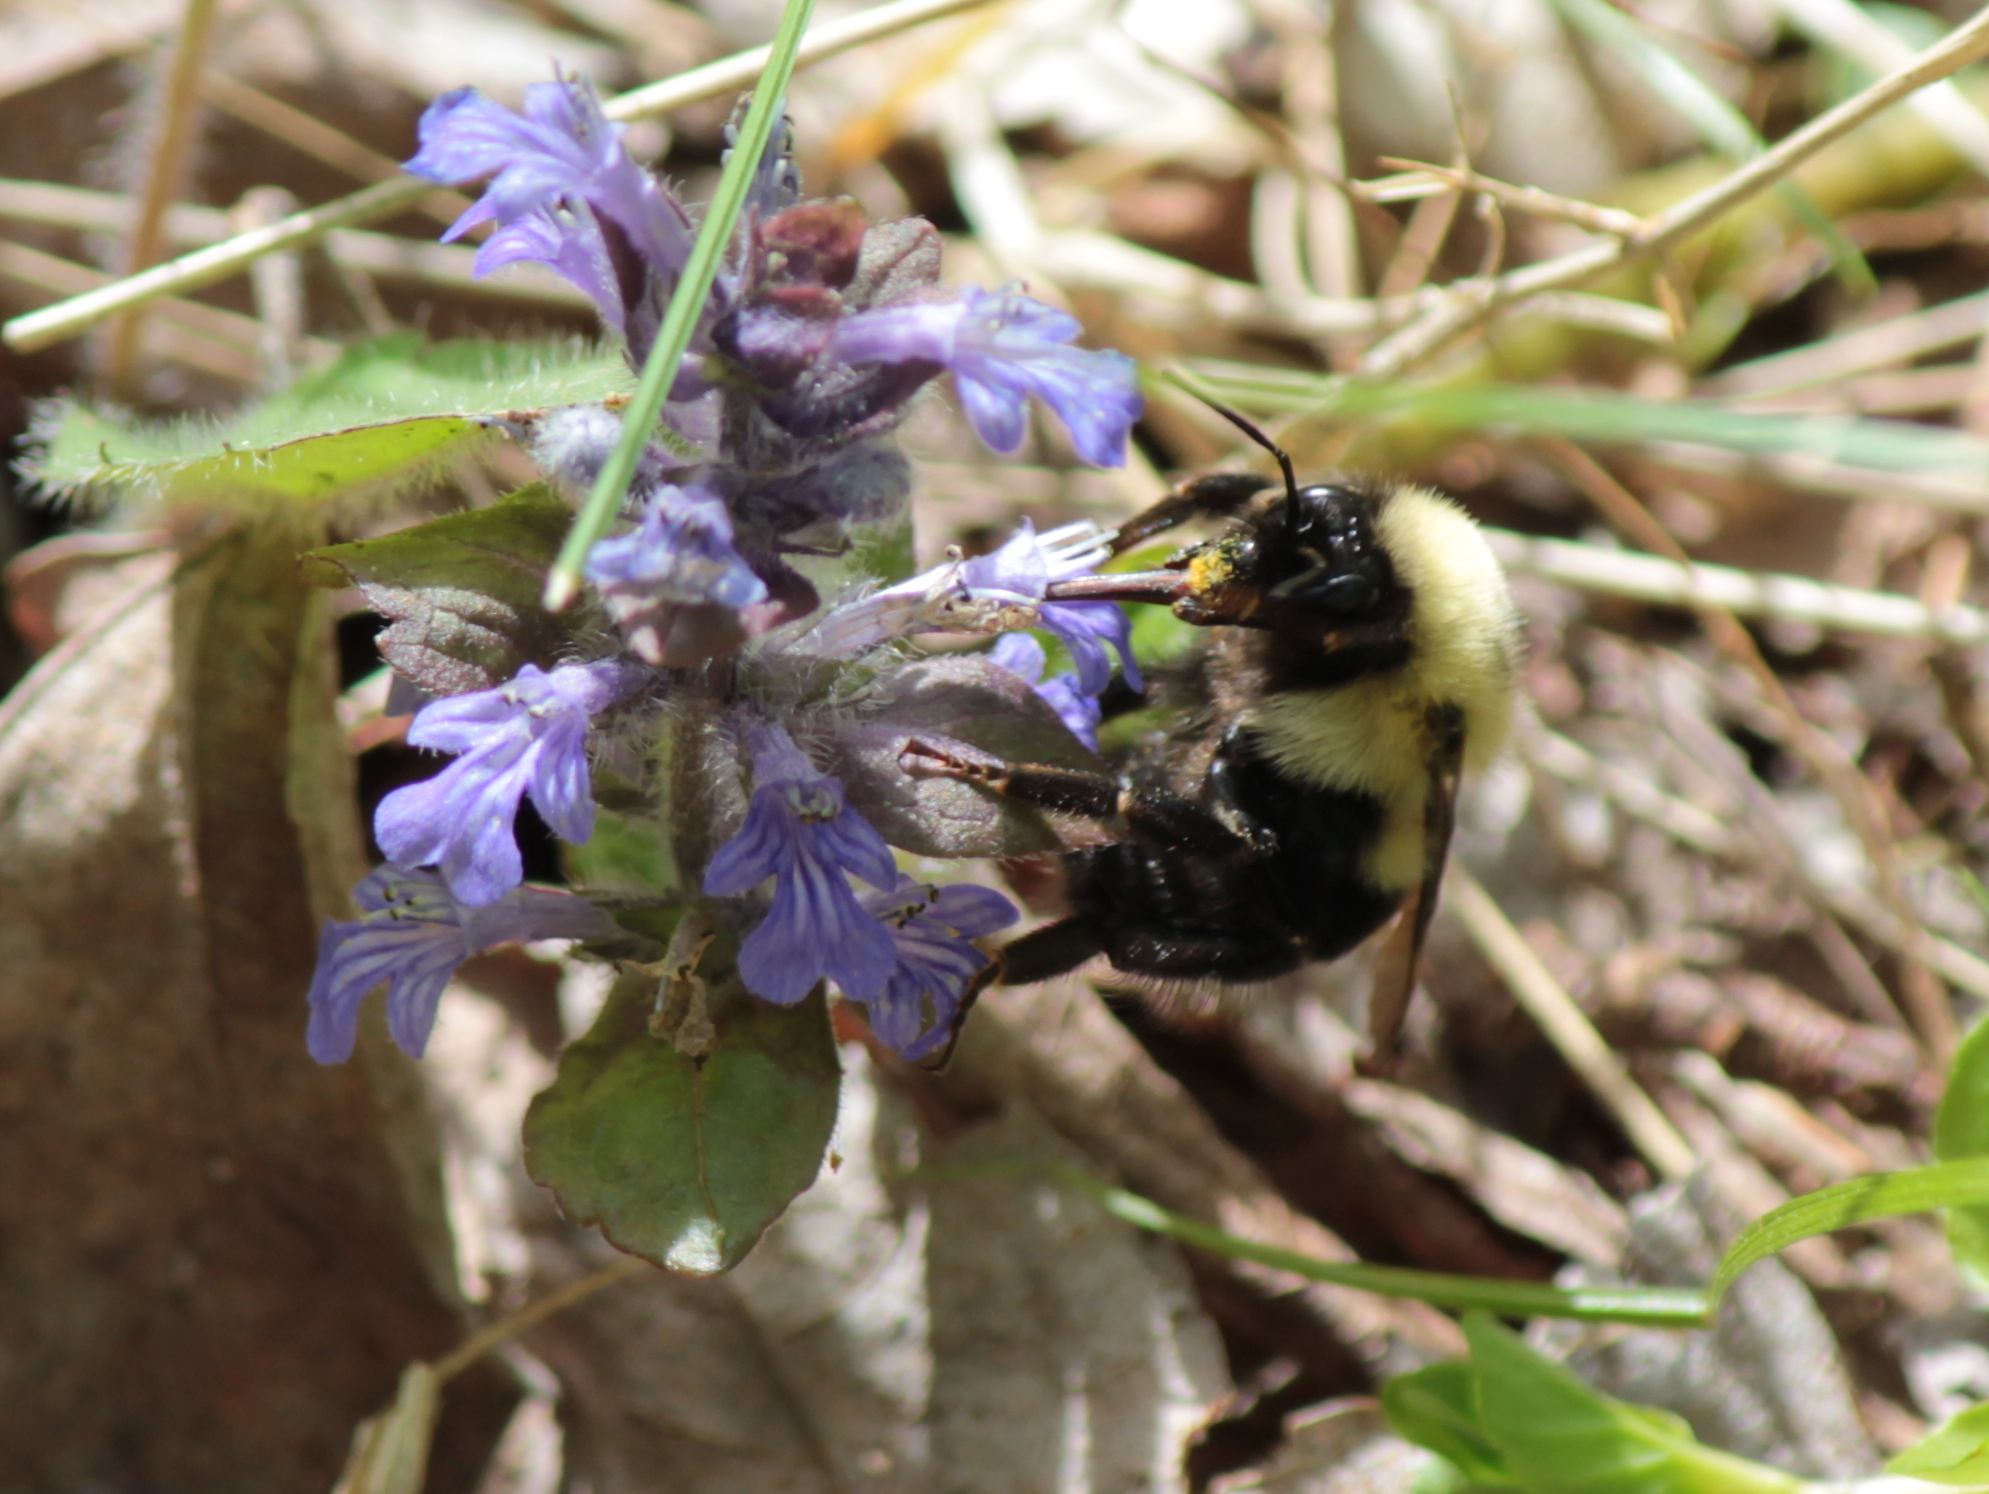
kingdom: Animalia
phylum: Arthropoda
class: Insecta
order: Hymenoptera
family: Apidae
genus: Bombus
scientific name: Bombus bimaculatus
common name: Two-spotted bumble bee
